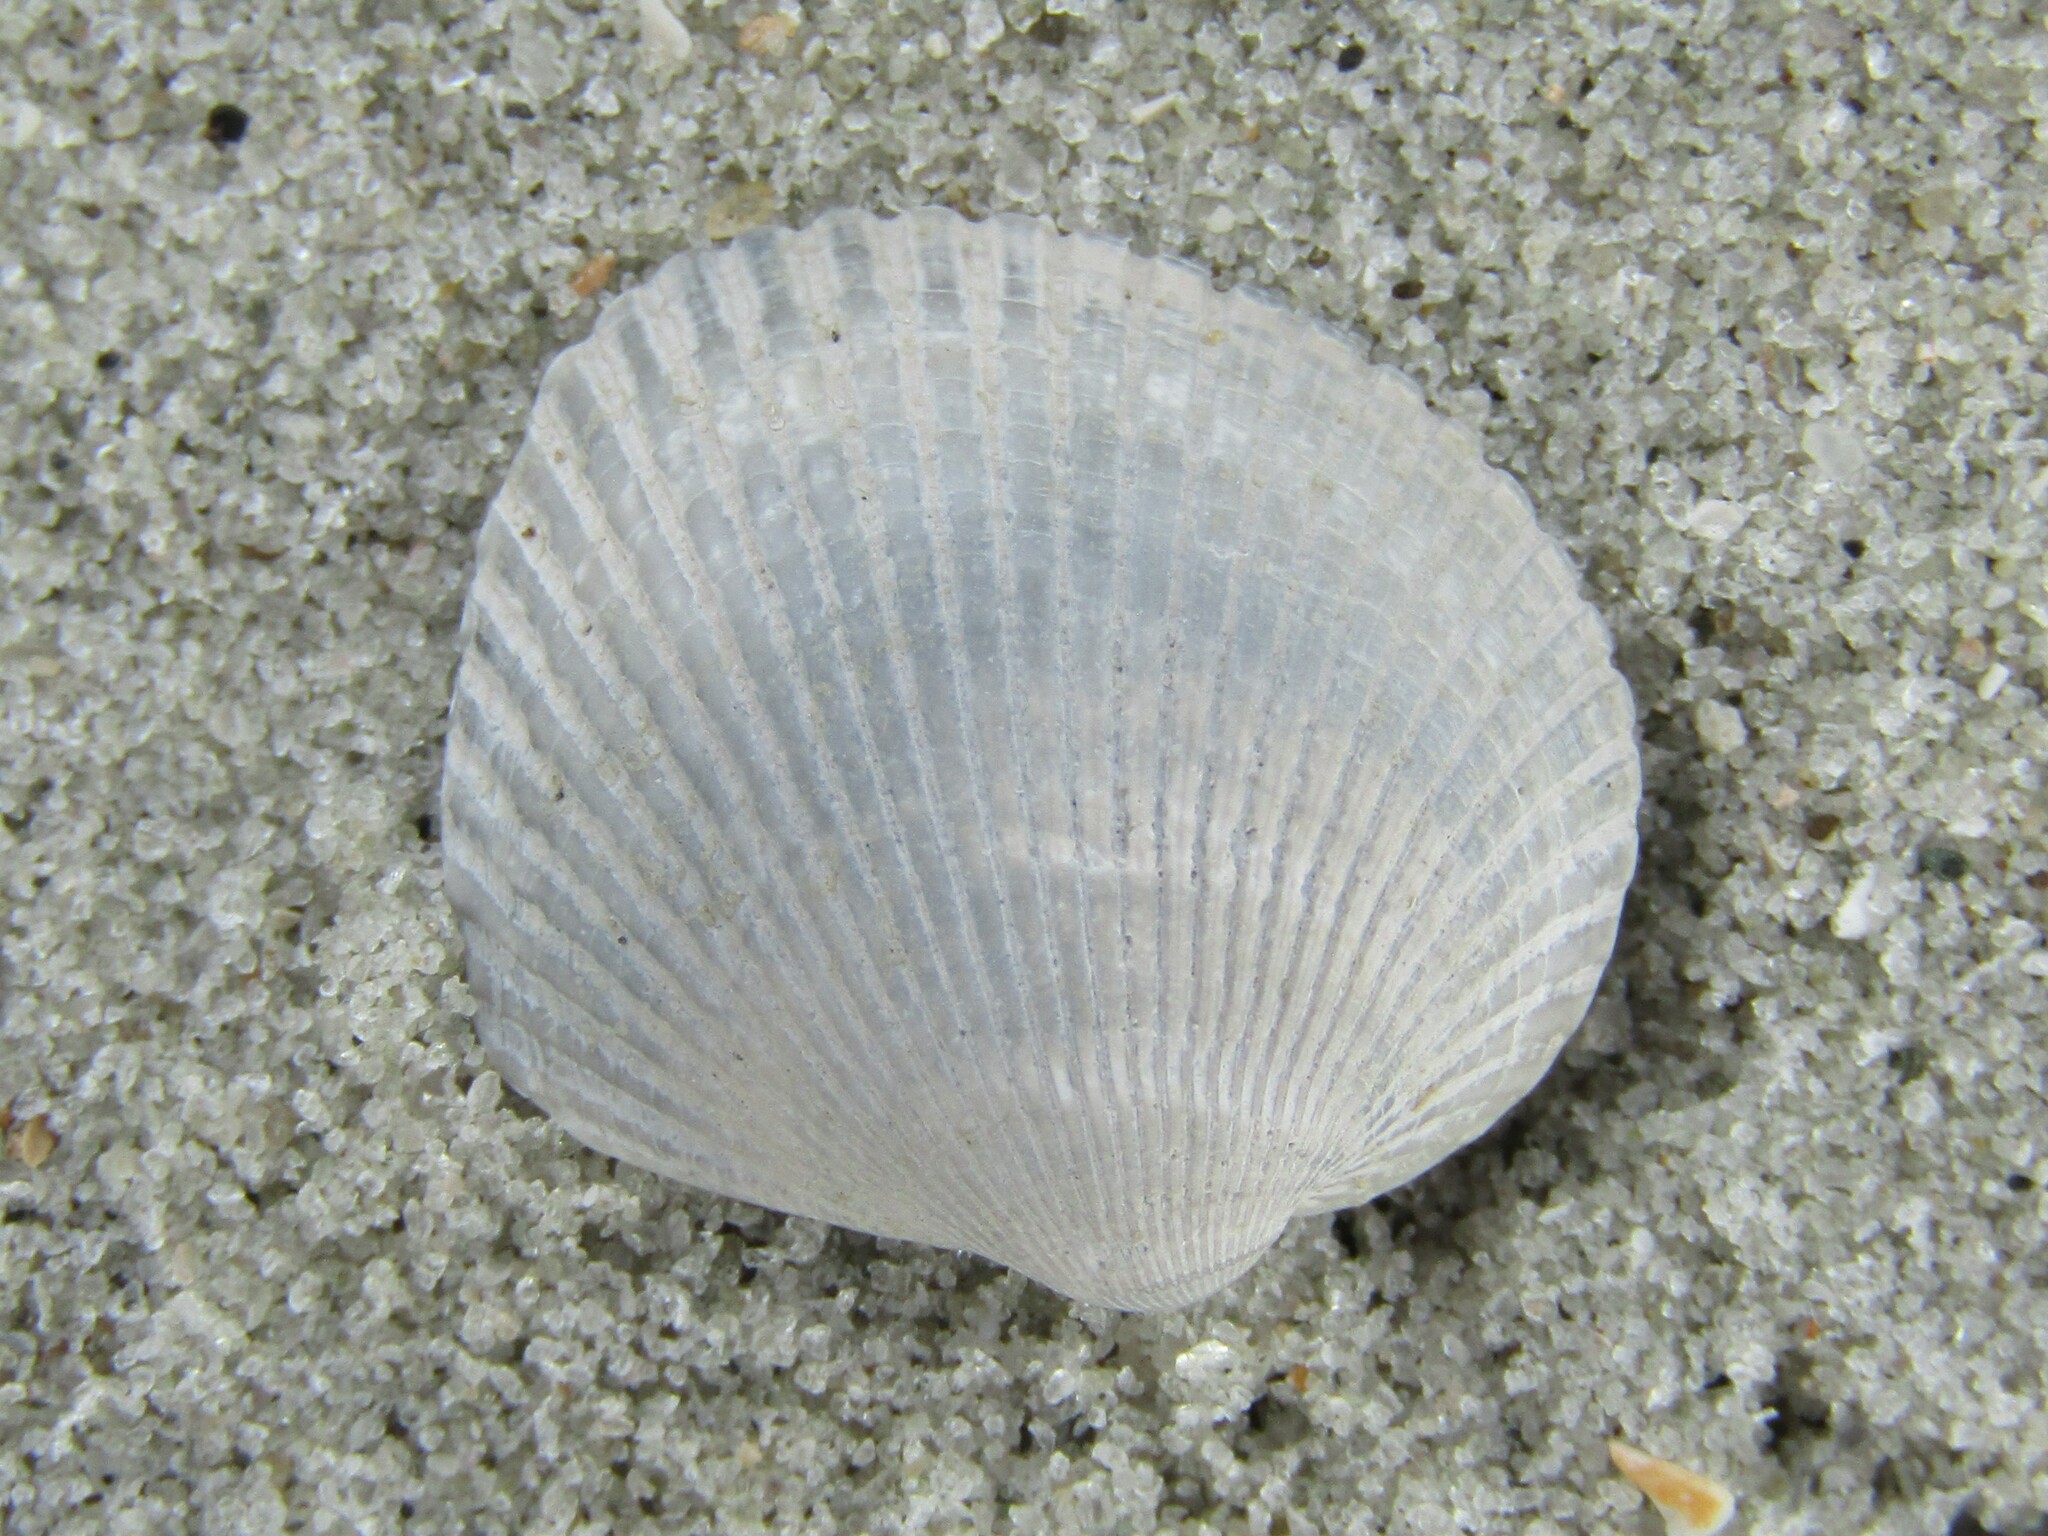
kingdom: Animalia
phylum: Mollusca
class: Bivalvia
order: Arcida
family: Arcidae
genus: Lunarca
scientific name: Lunarca ovalis
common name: Blood ark
